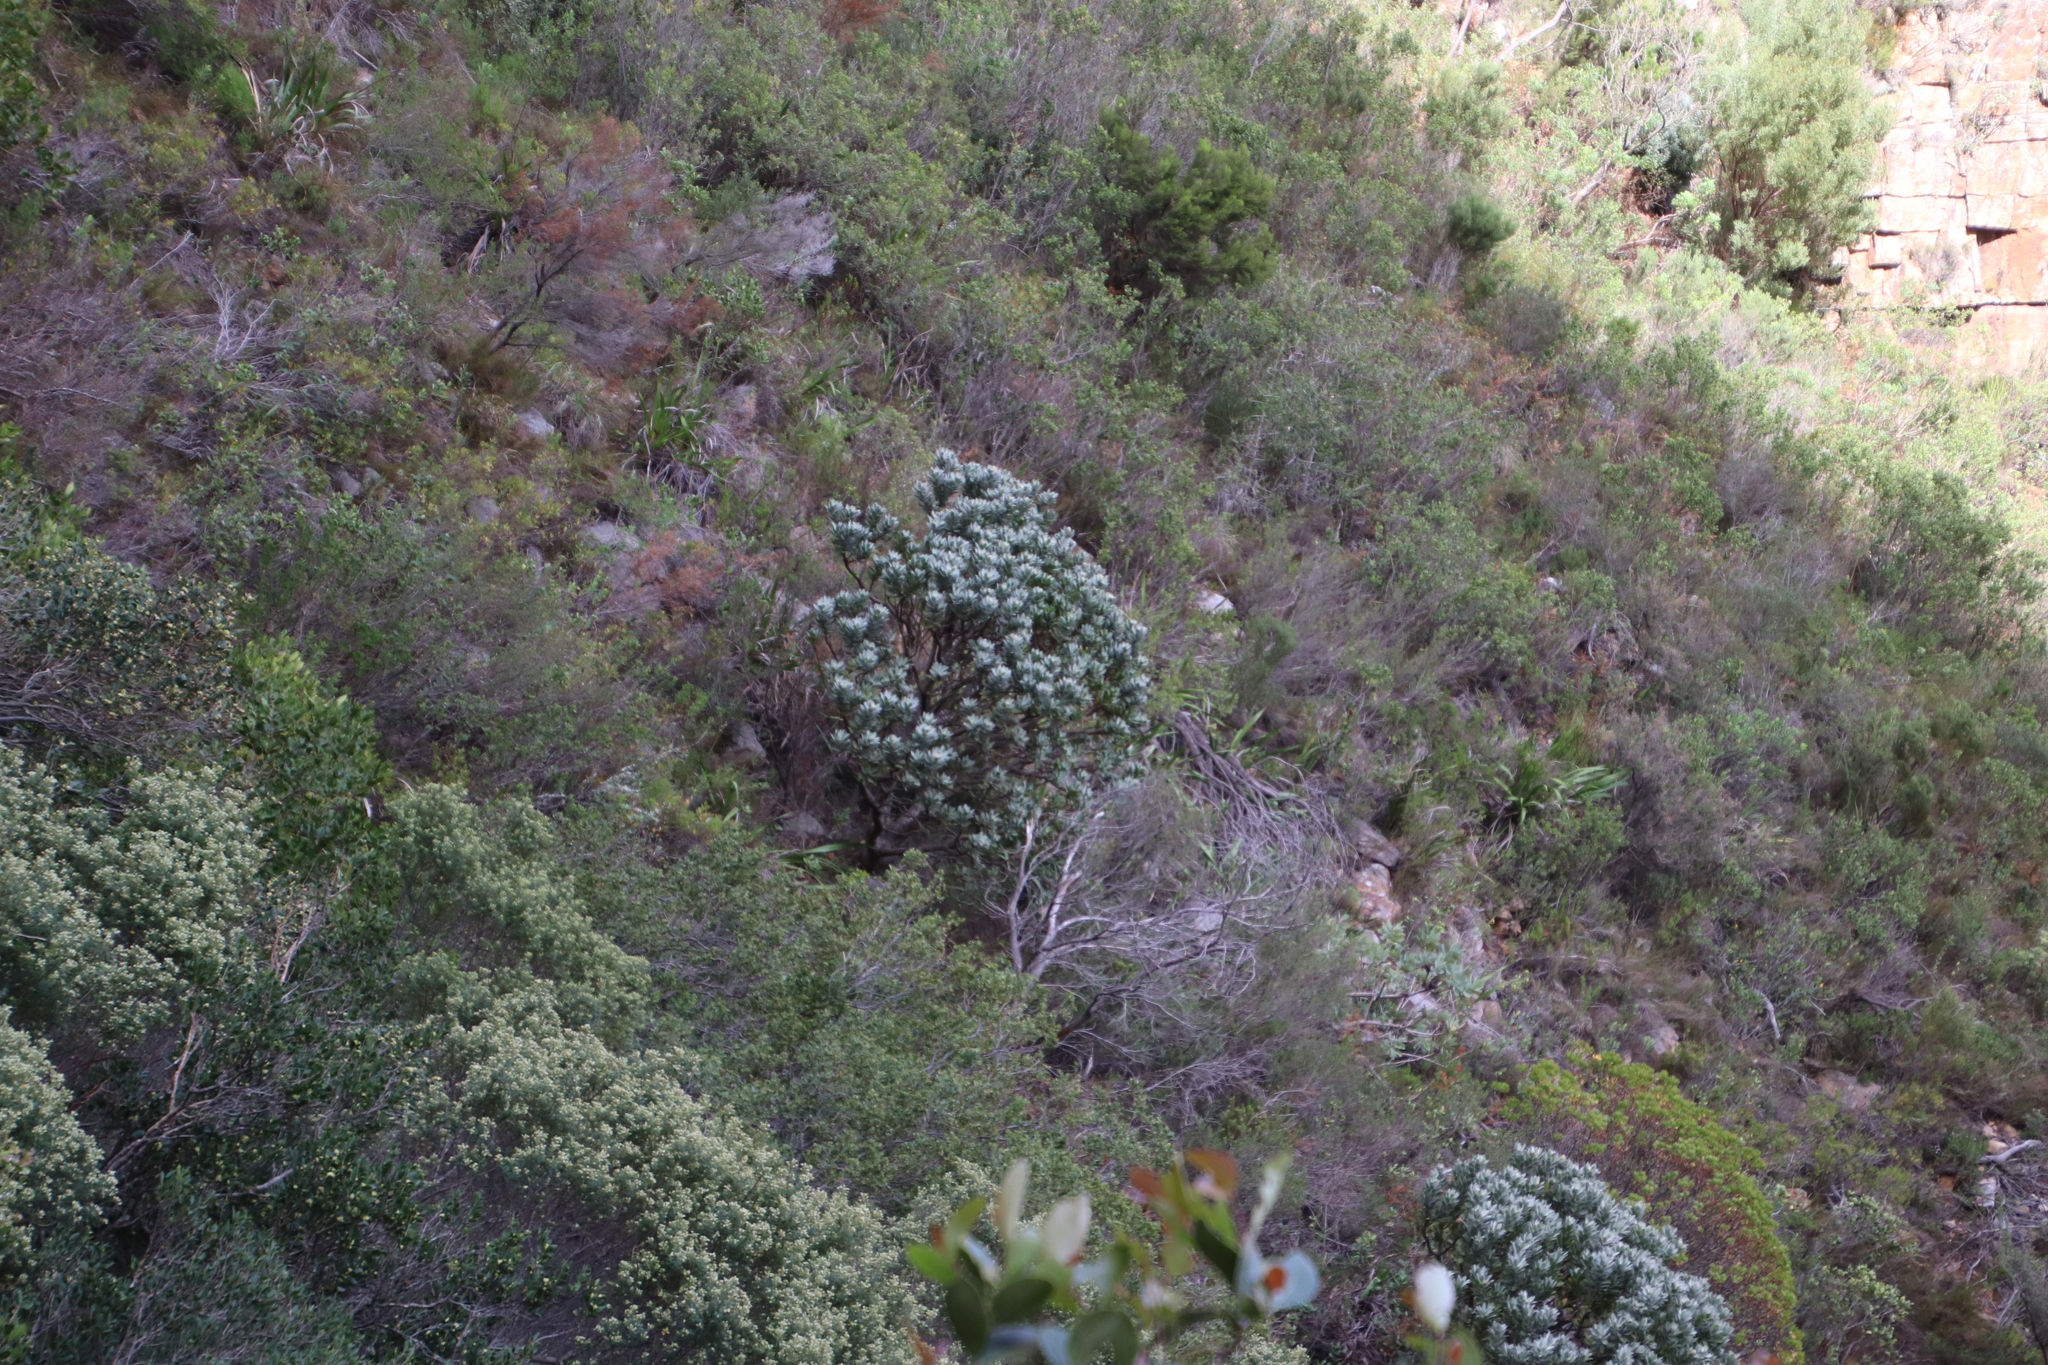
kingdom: Plantae
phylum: Tracheophyta
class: Magnoliopsida
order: Proteales
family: Proteaceae
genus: Leucospermum
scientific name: Leucospermum conocarpodendron
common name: Tree pincushion
